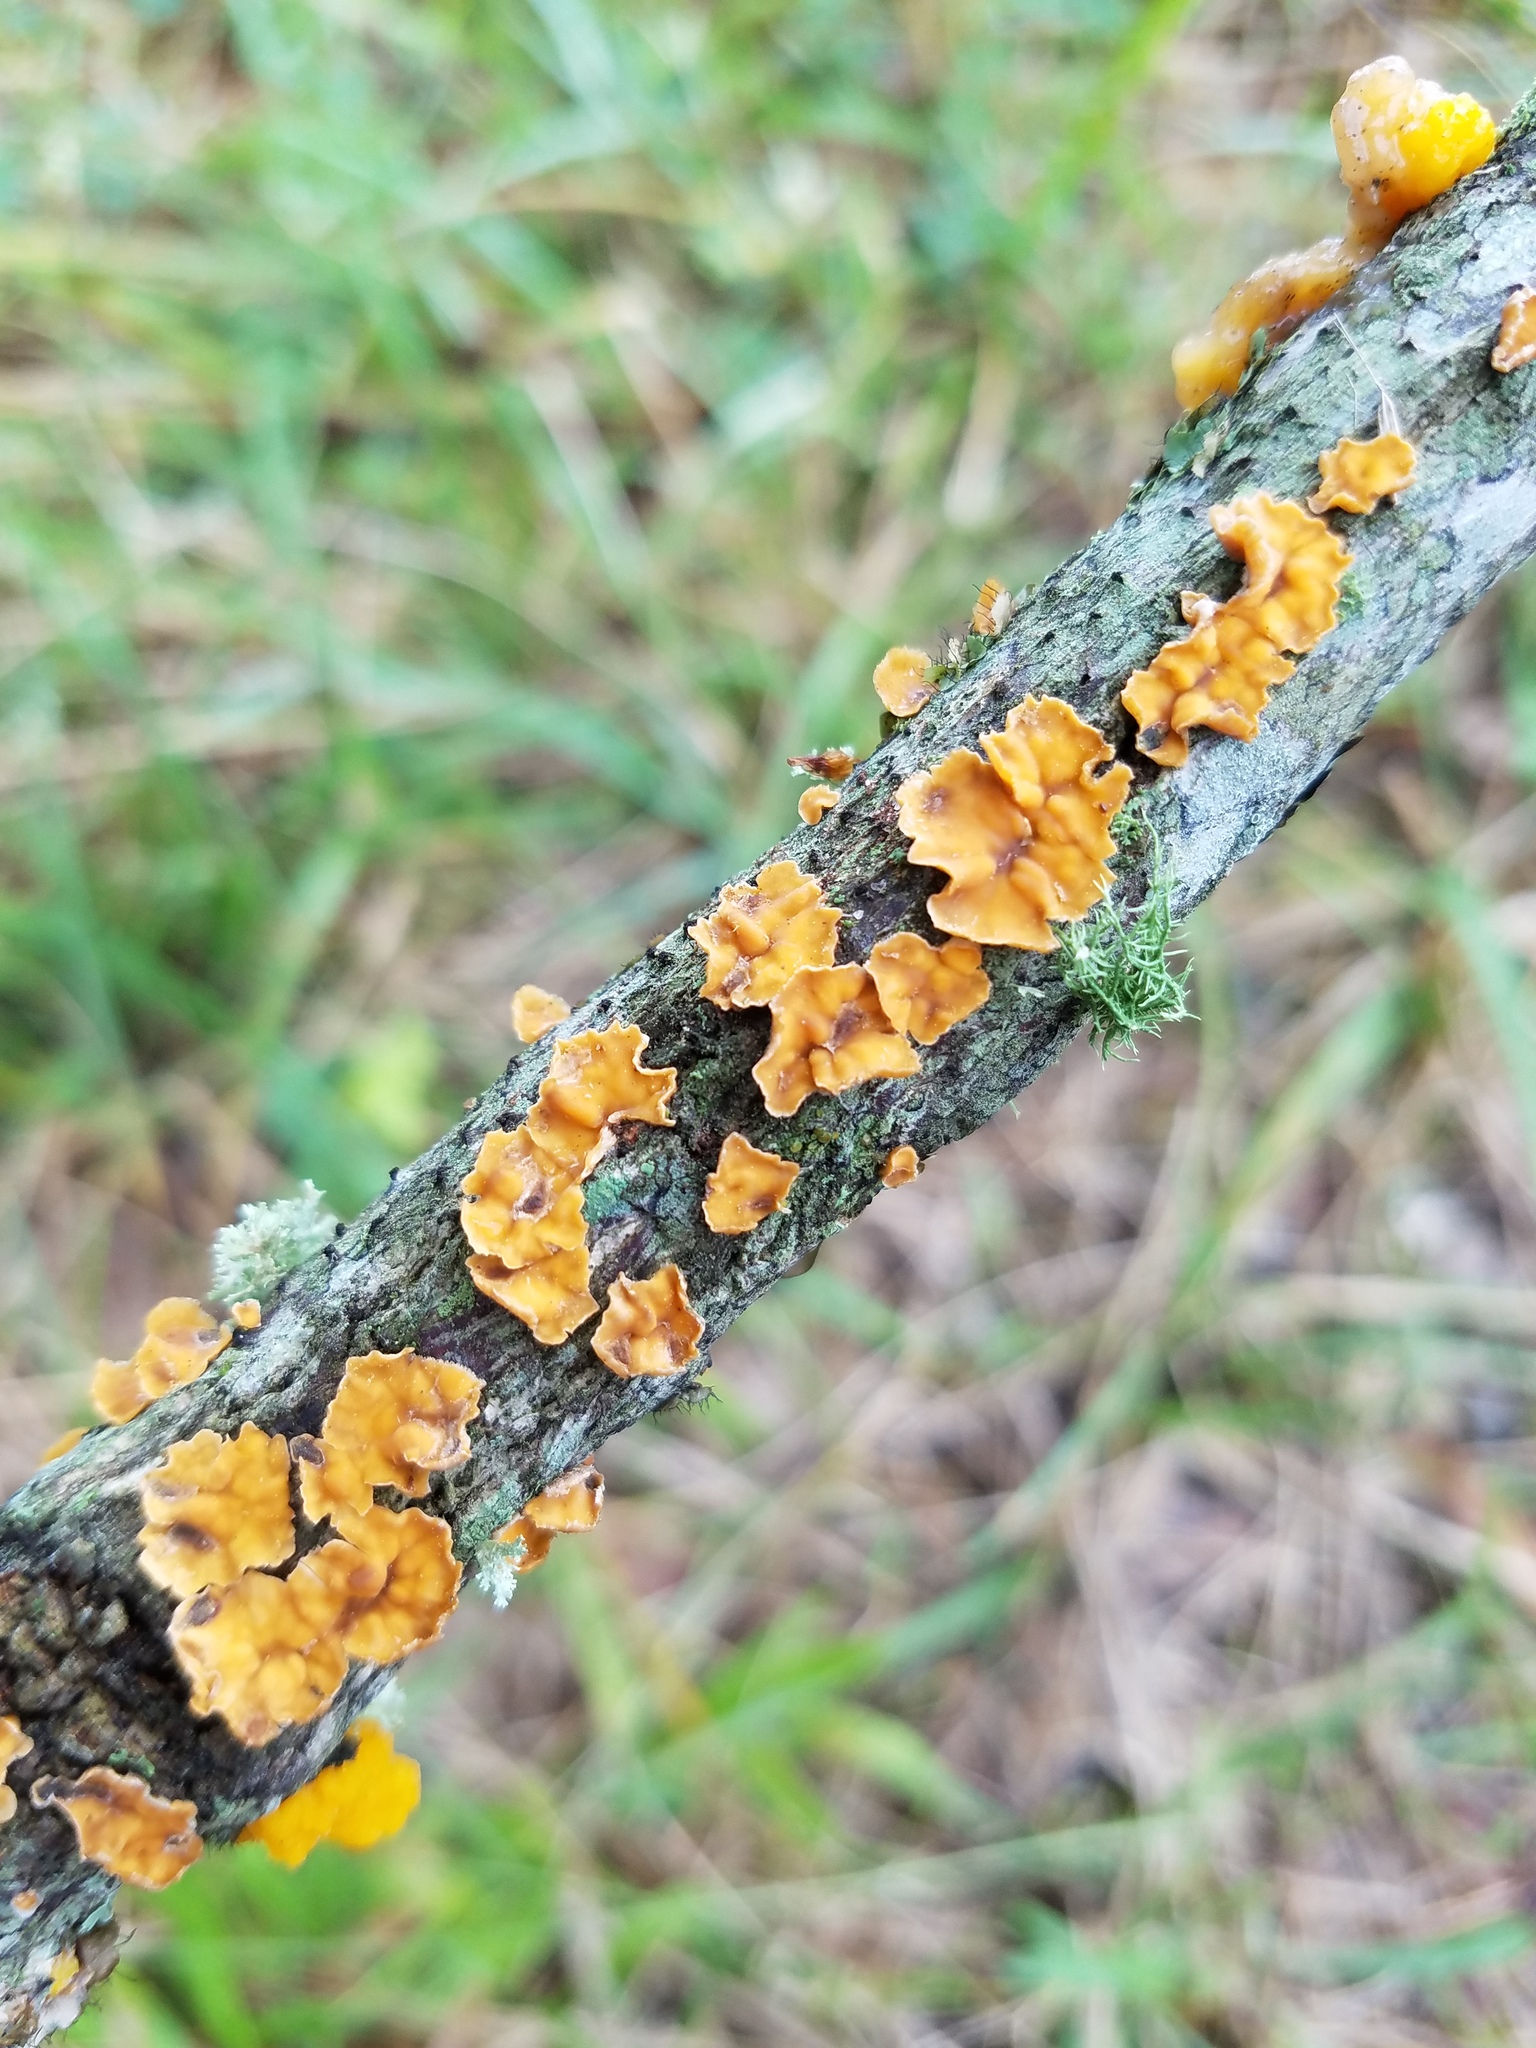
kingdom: Fungi
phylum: Basidiomycota
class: Agaricomycetes
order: Russulales
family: Stereaceae
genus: Stereum
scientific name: Stereum complicatum
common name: Crowded parchment
